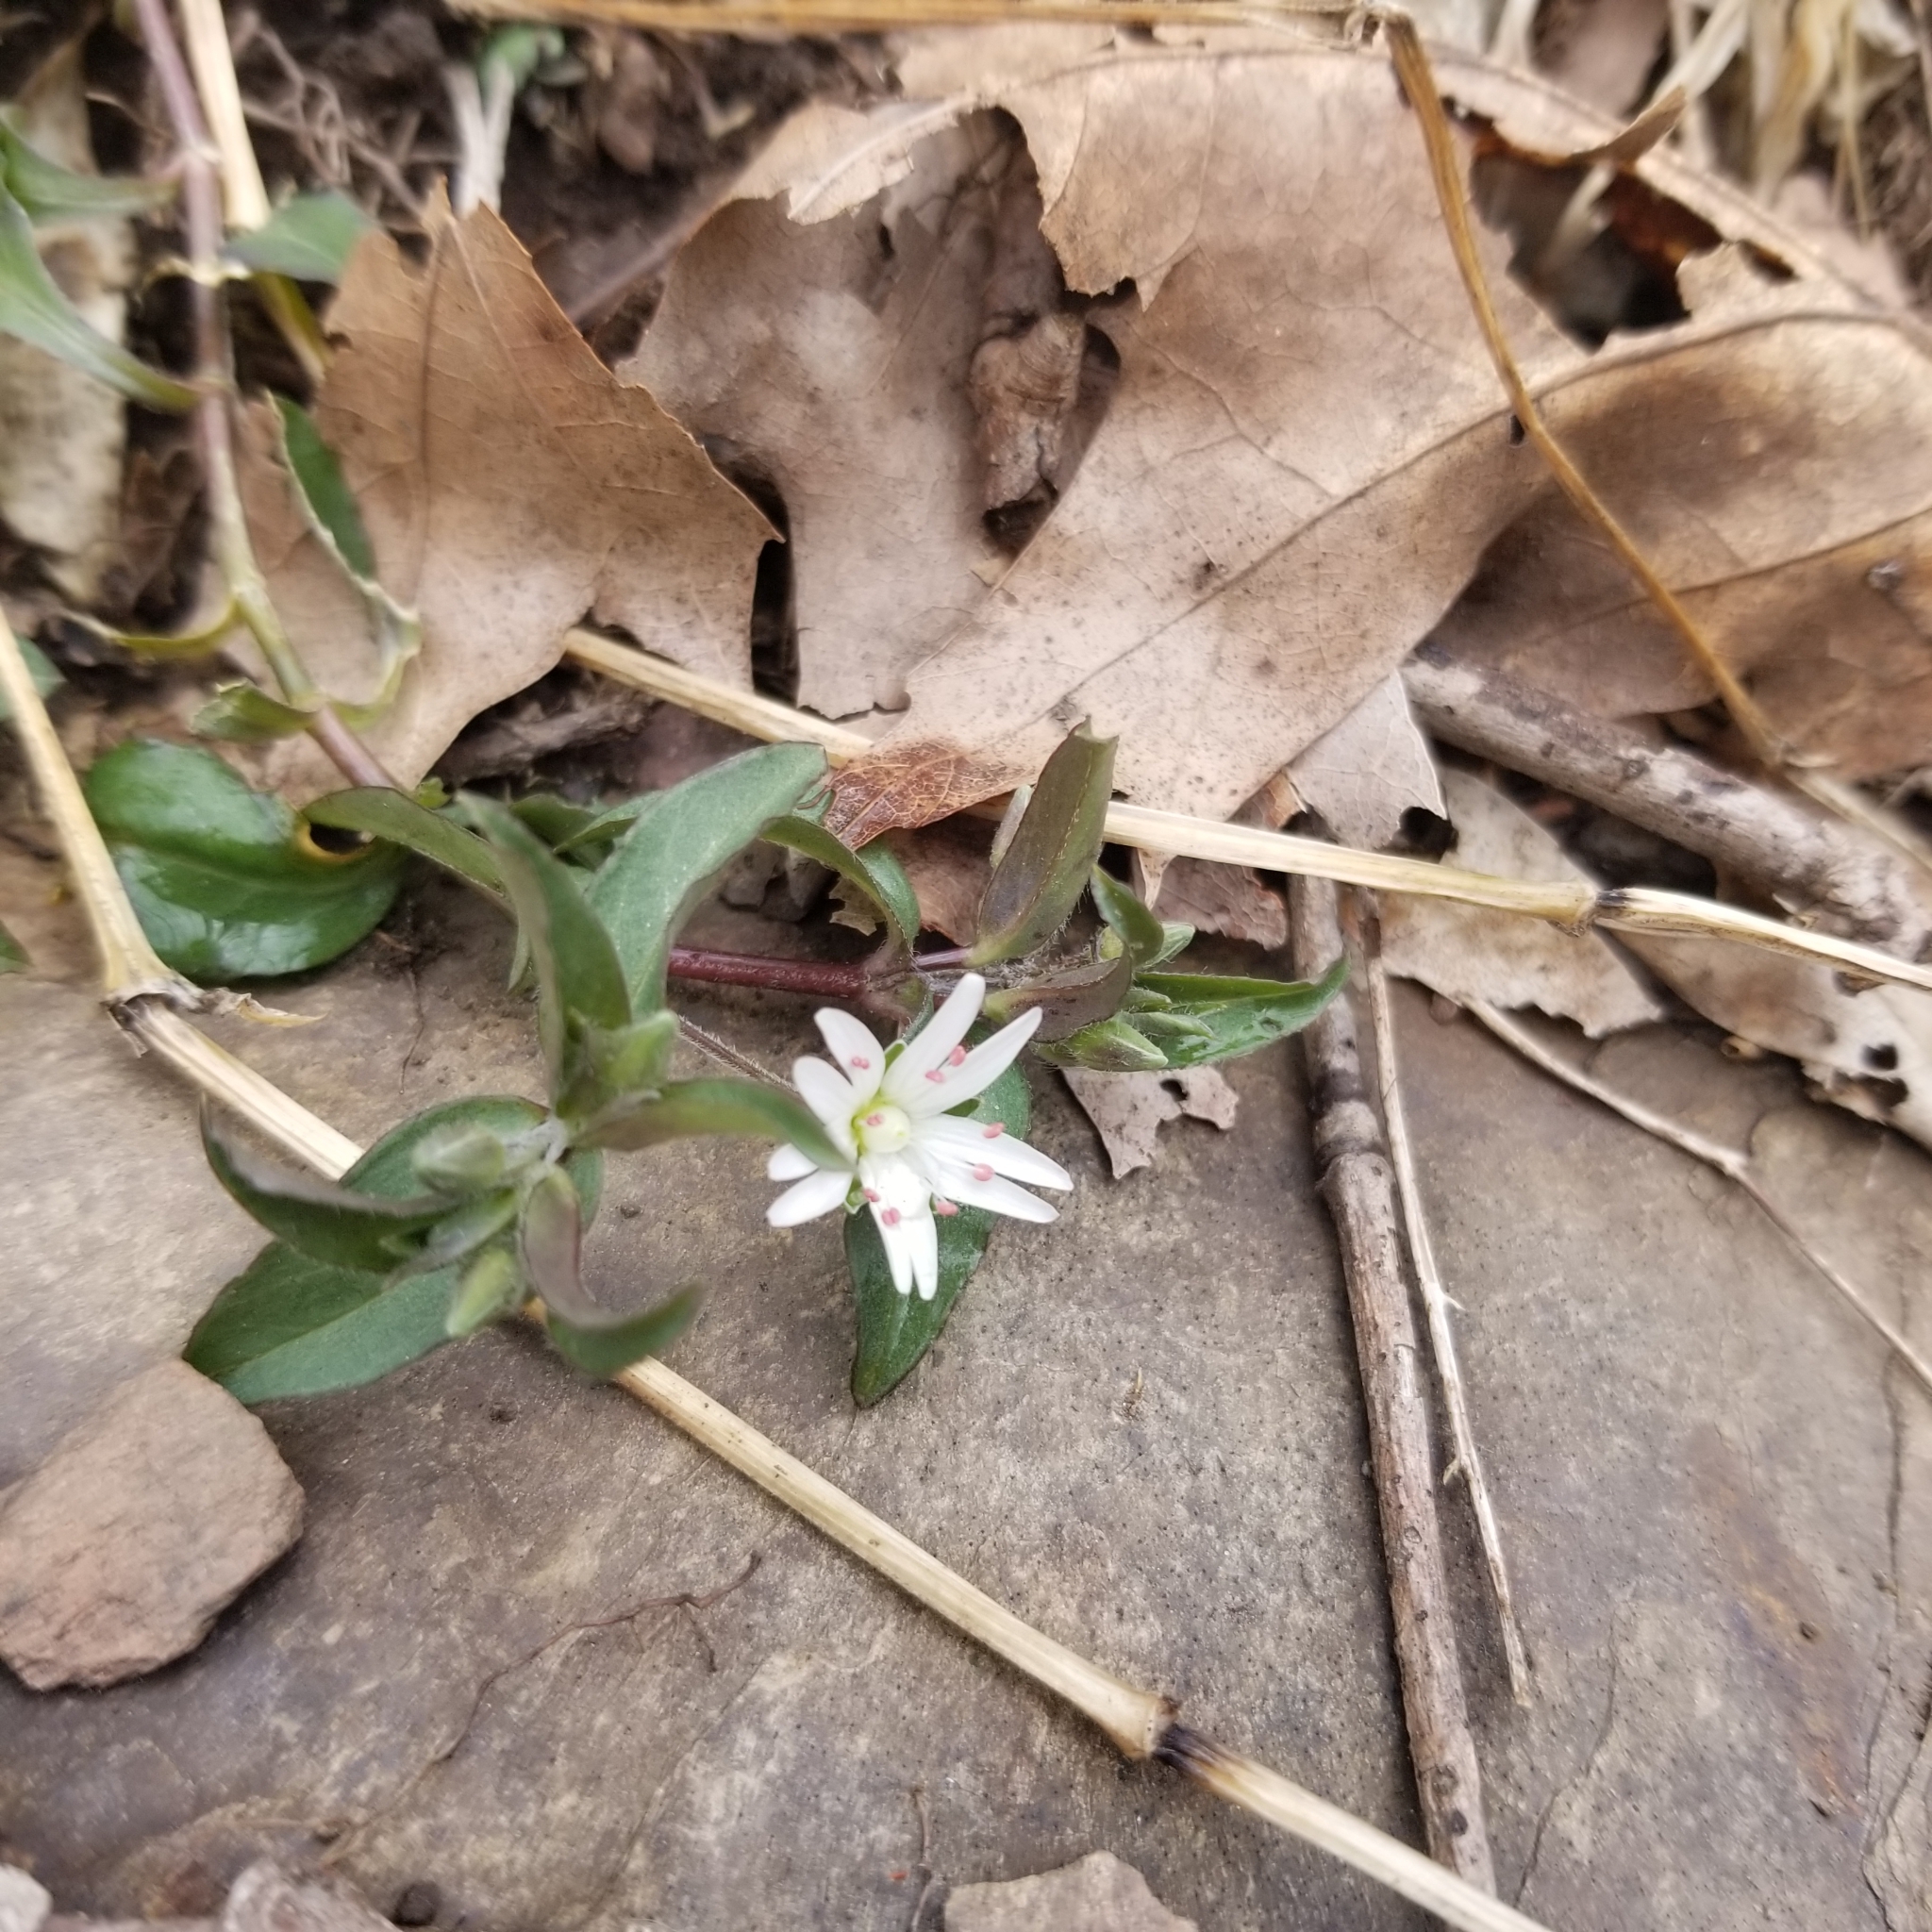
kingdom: Plantae
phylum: Tracheophyta
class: Magnoliopsida
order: Caryophyllales
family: Caryophyllaceae
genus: Stellaria
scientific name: Stellaria pubera
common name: Star chickweed
